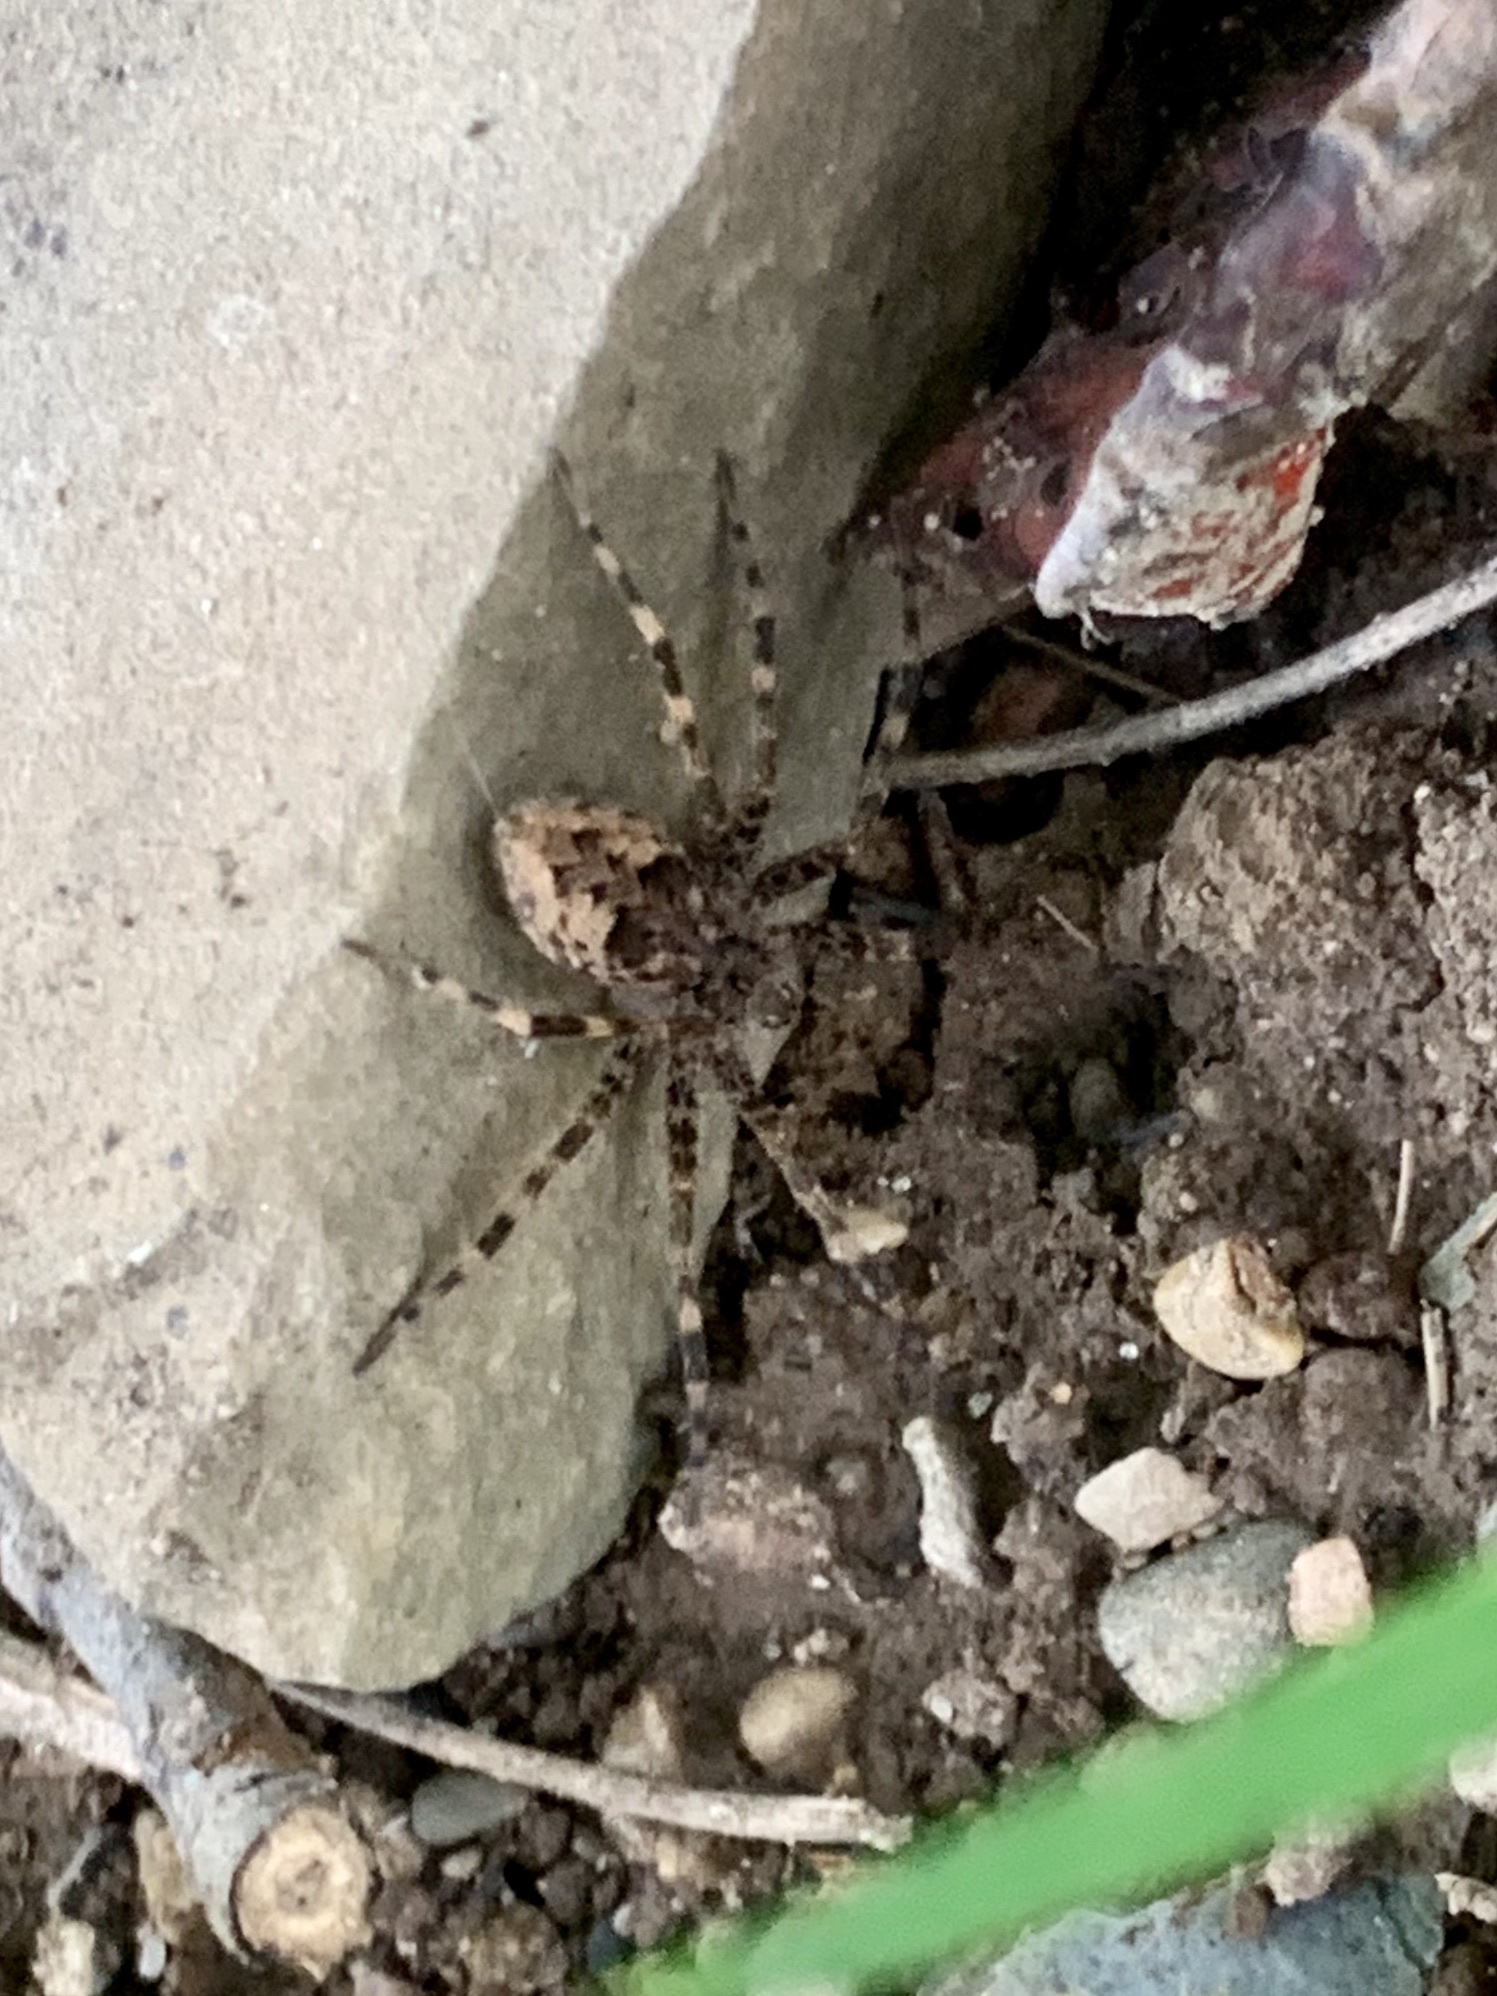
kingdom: Animalia
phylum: Arthropoda
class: Arachnida
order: Araneae
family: Pisauridae
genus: Dolomedes
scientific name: Dolomedes tenebrosus
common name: Dark fishing spider
